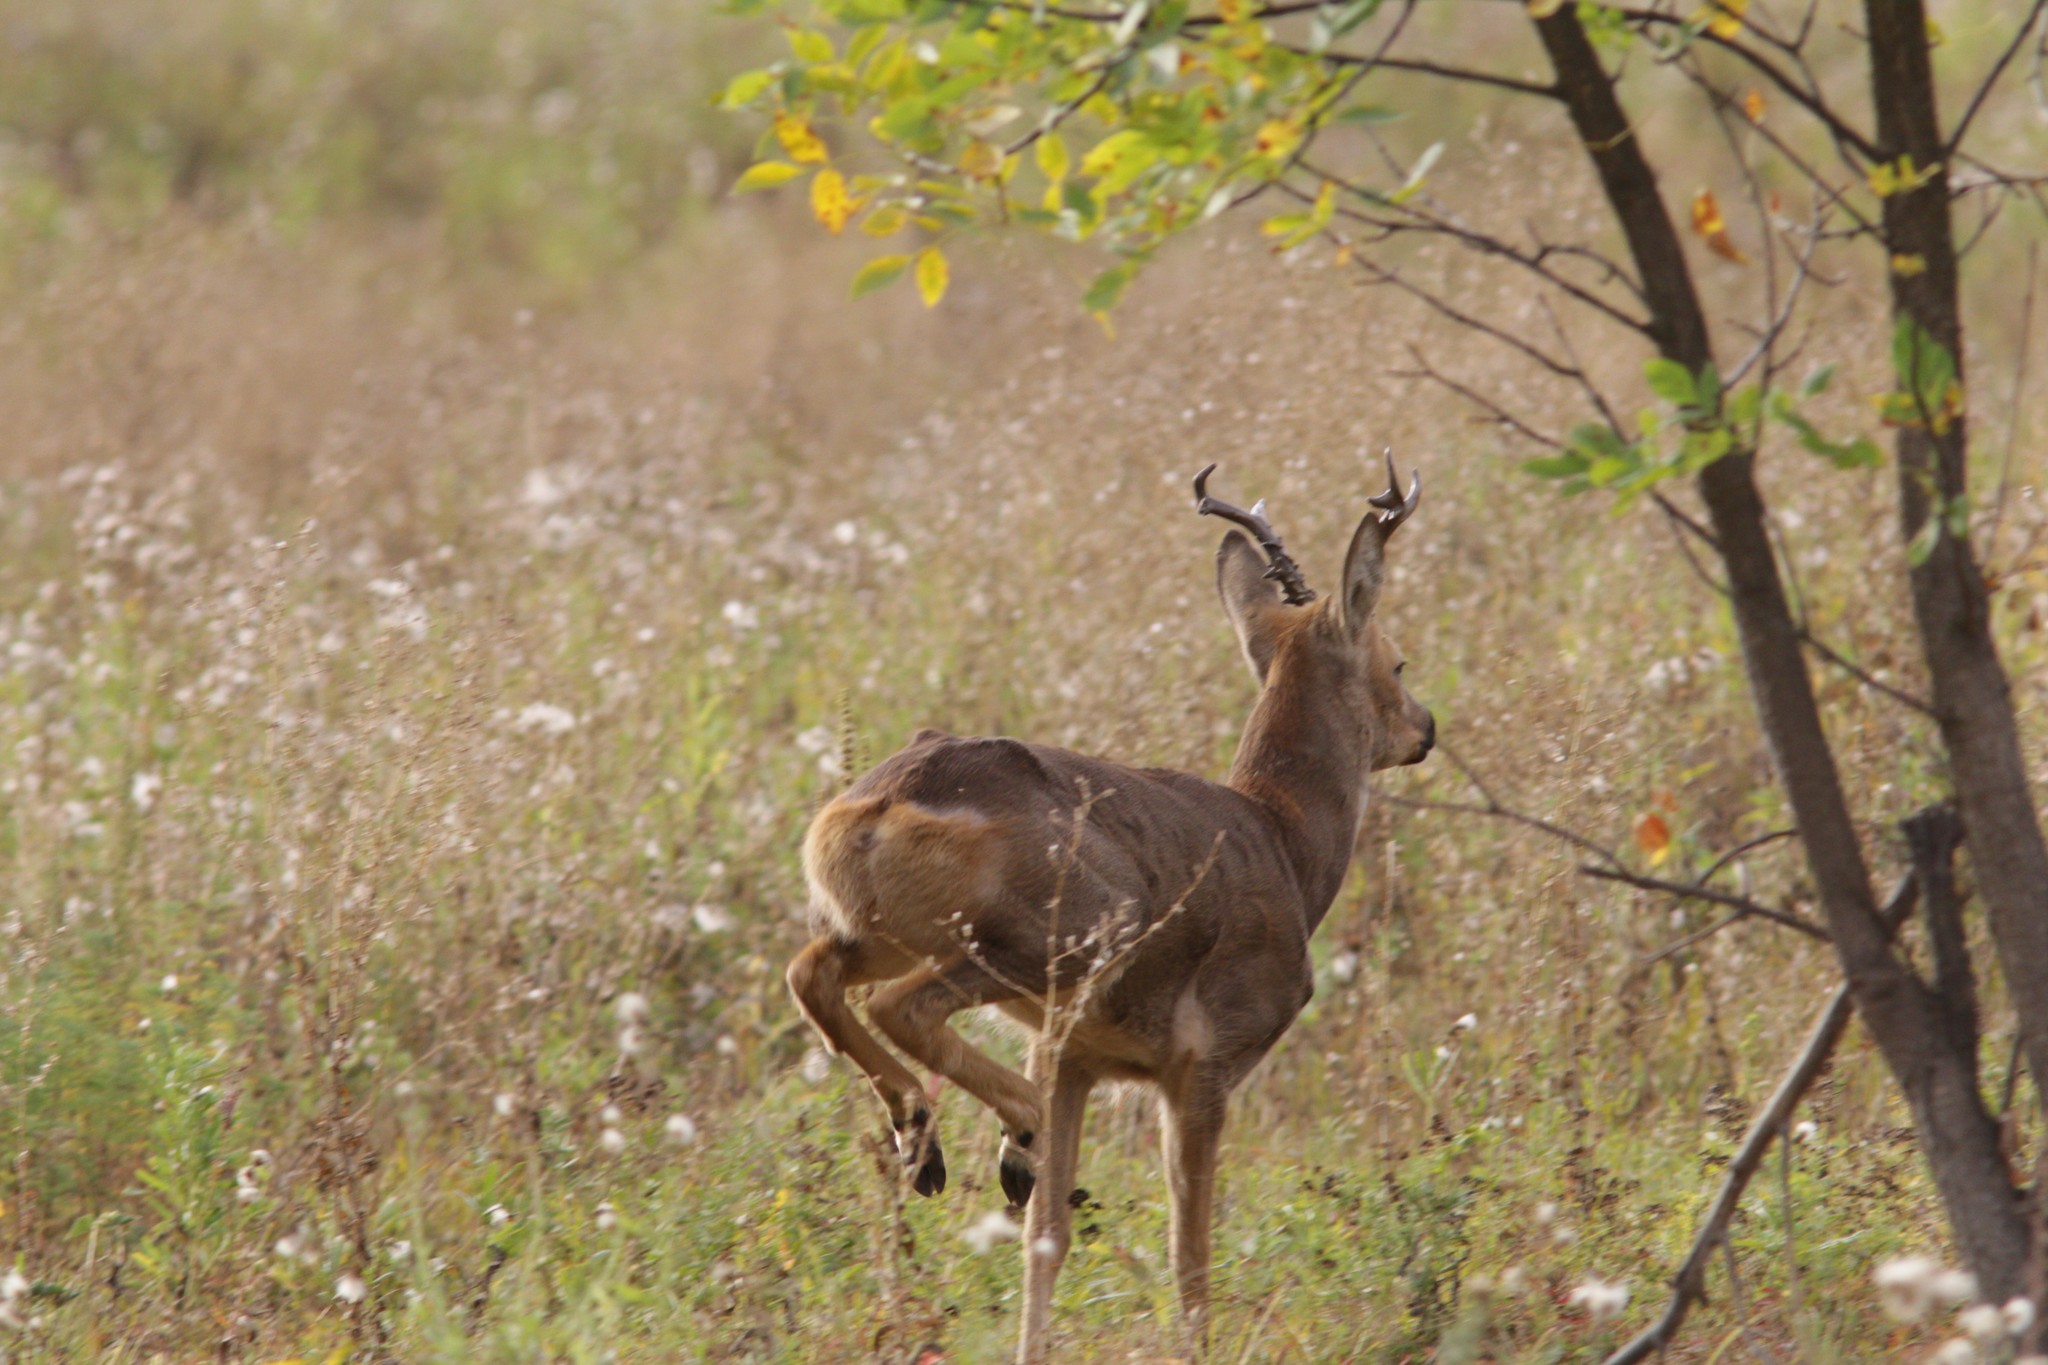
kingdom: Animalia
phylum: Chordata
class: Mammalia
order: Artiodactyla
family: Cervidae
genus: Capreolus
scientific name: Capreolus pygargus
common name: Siberian roe
